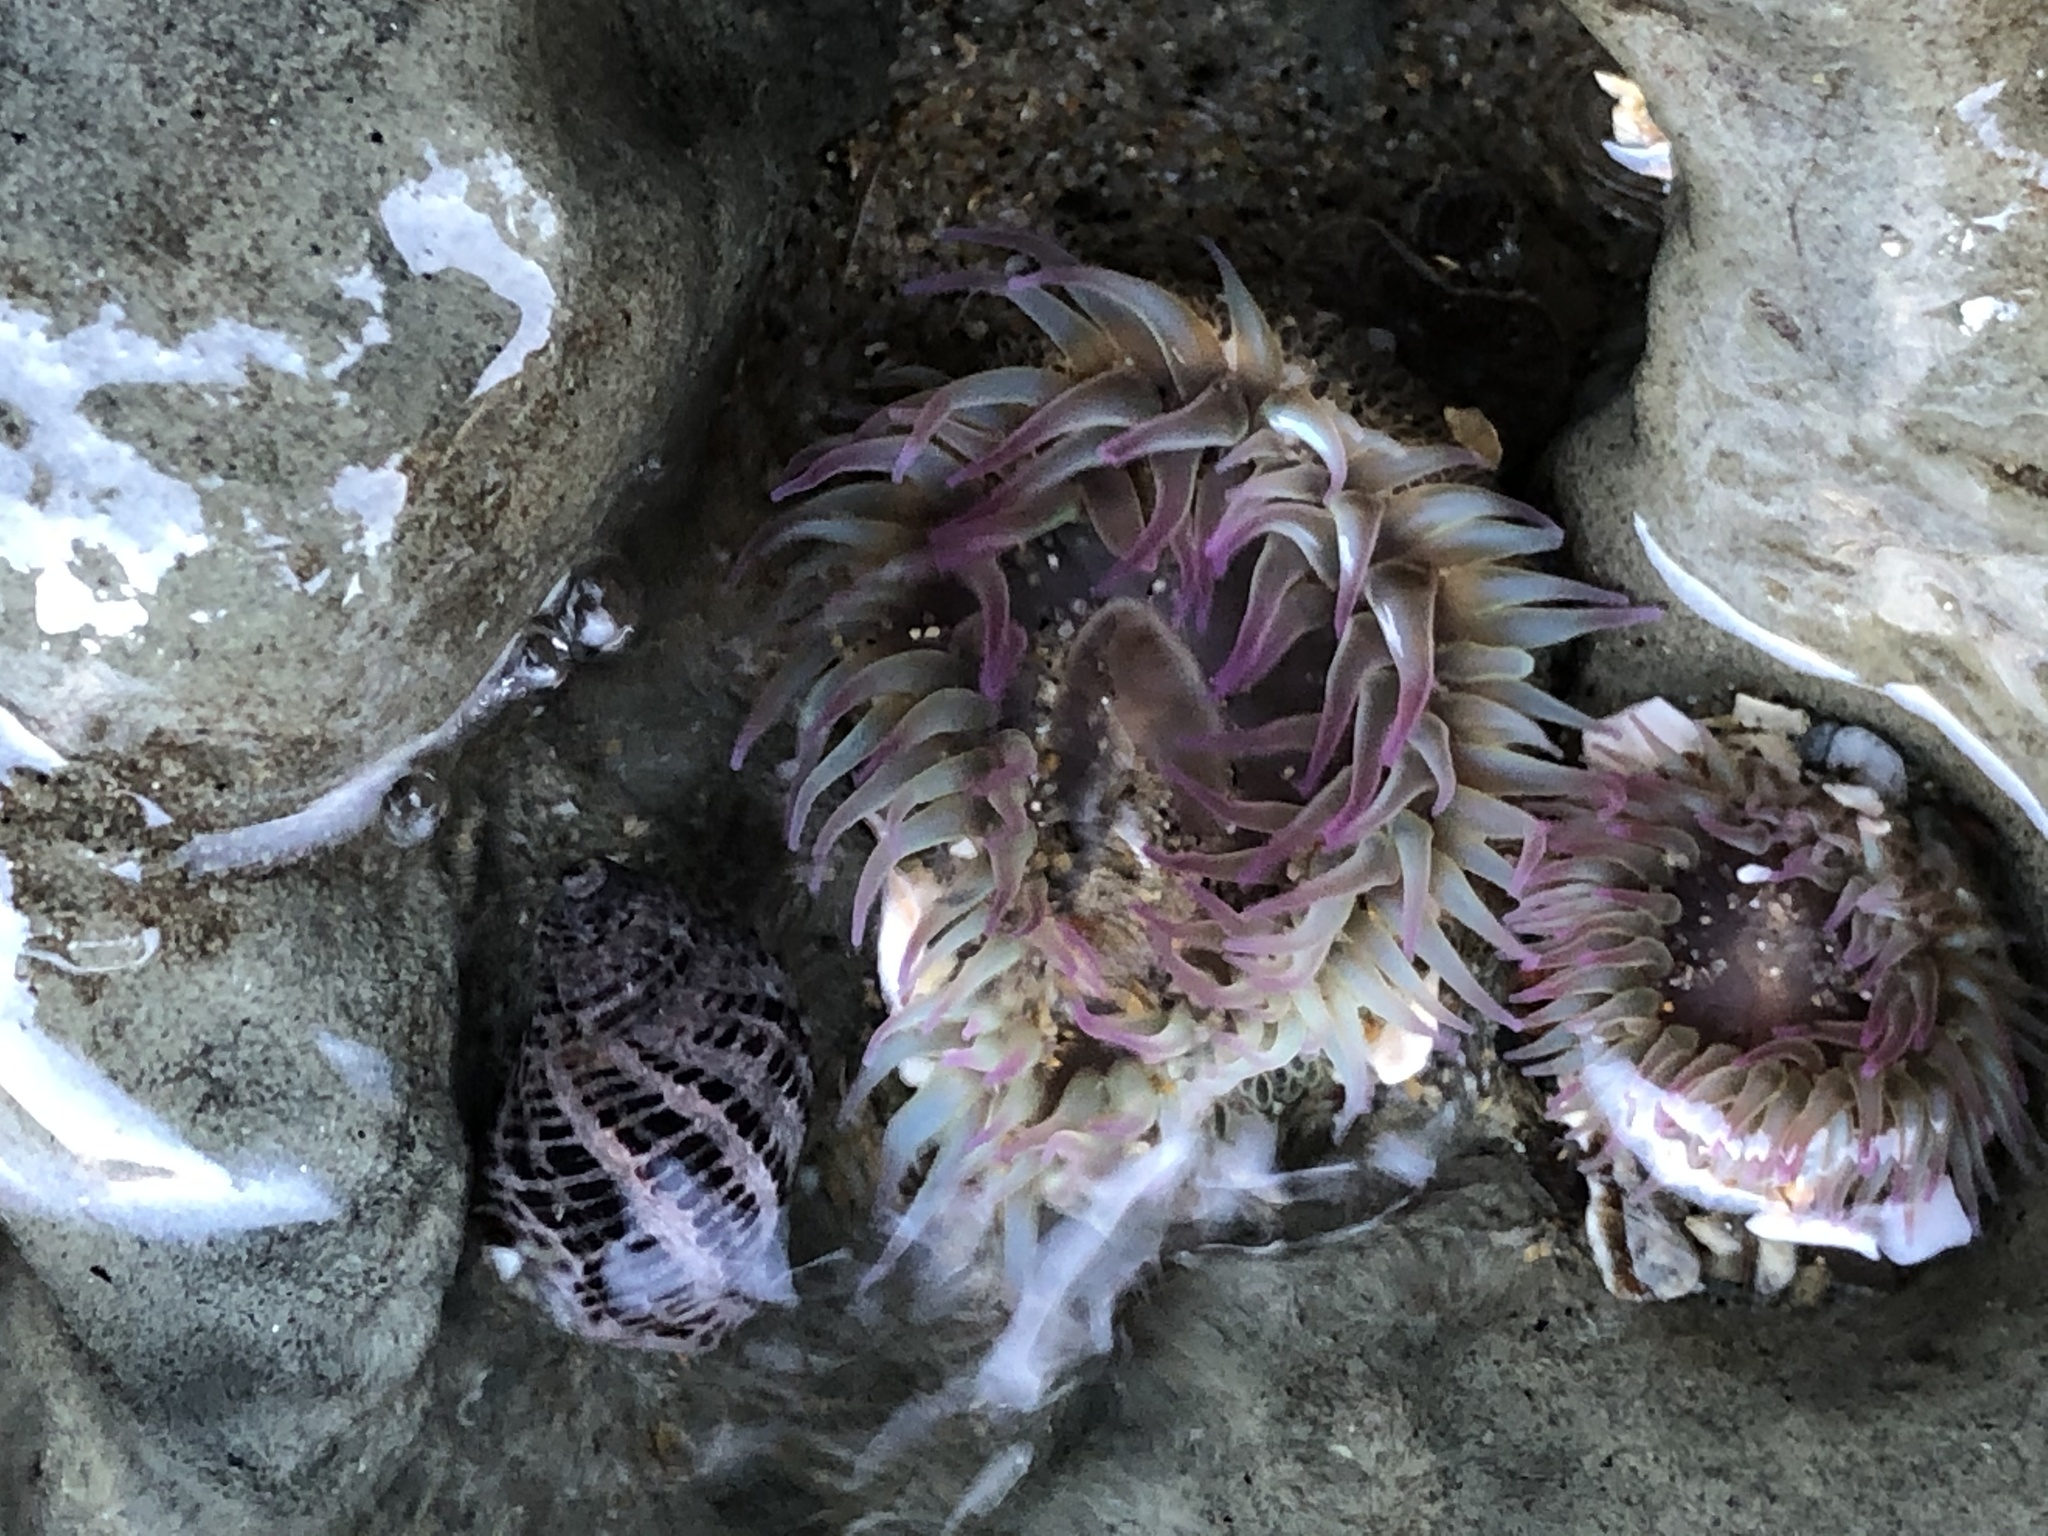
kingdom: Animalia
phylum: Cnidaria
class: Anthozoa
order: Actiniaria
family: Actiniidae
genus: Anthopleura
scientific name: Anthopleura elegantissima
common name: Clonal anemone
